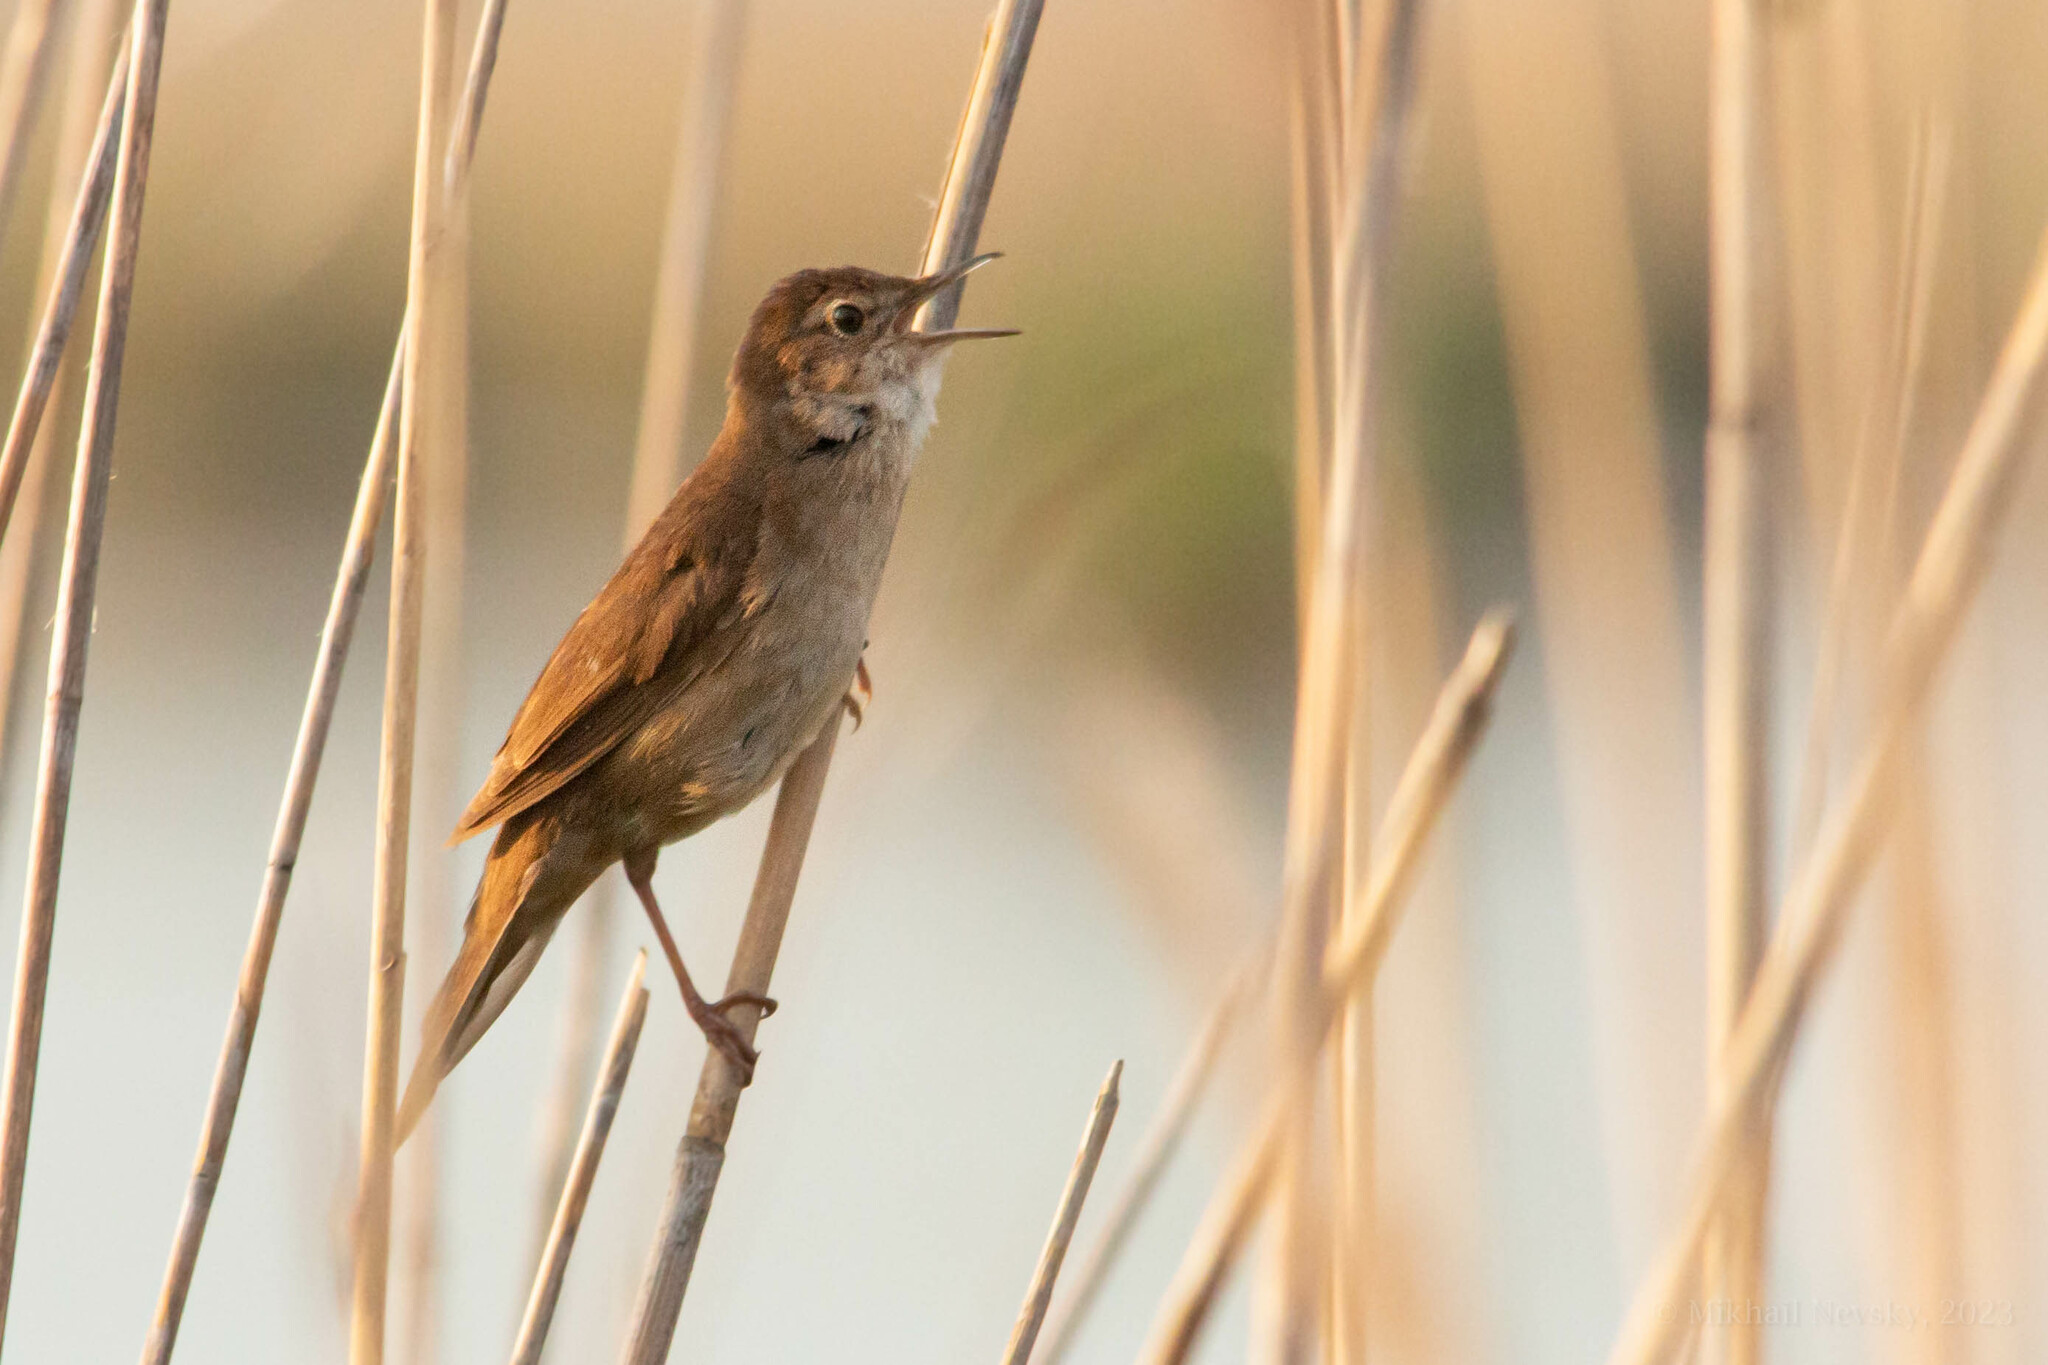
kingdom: Animalia
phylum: Chordata
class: Aves
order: Passeriformes
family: Locustellidae
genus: Locustella
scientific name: Locustella luscinioides
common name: Savi's warbler
